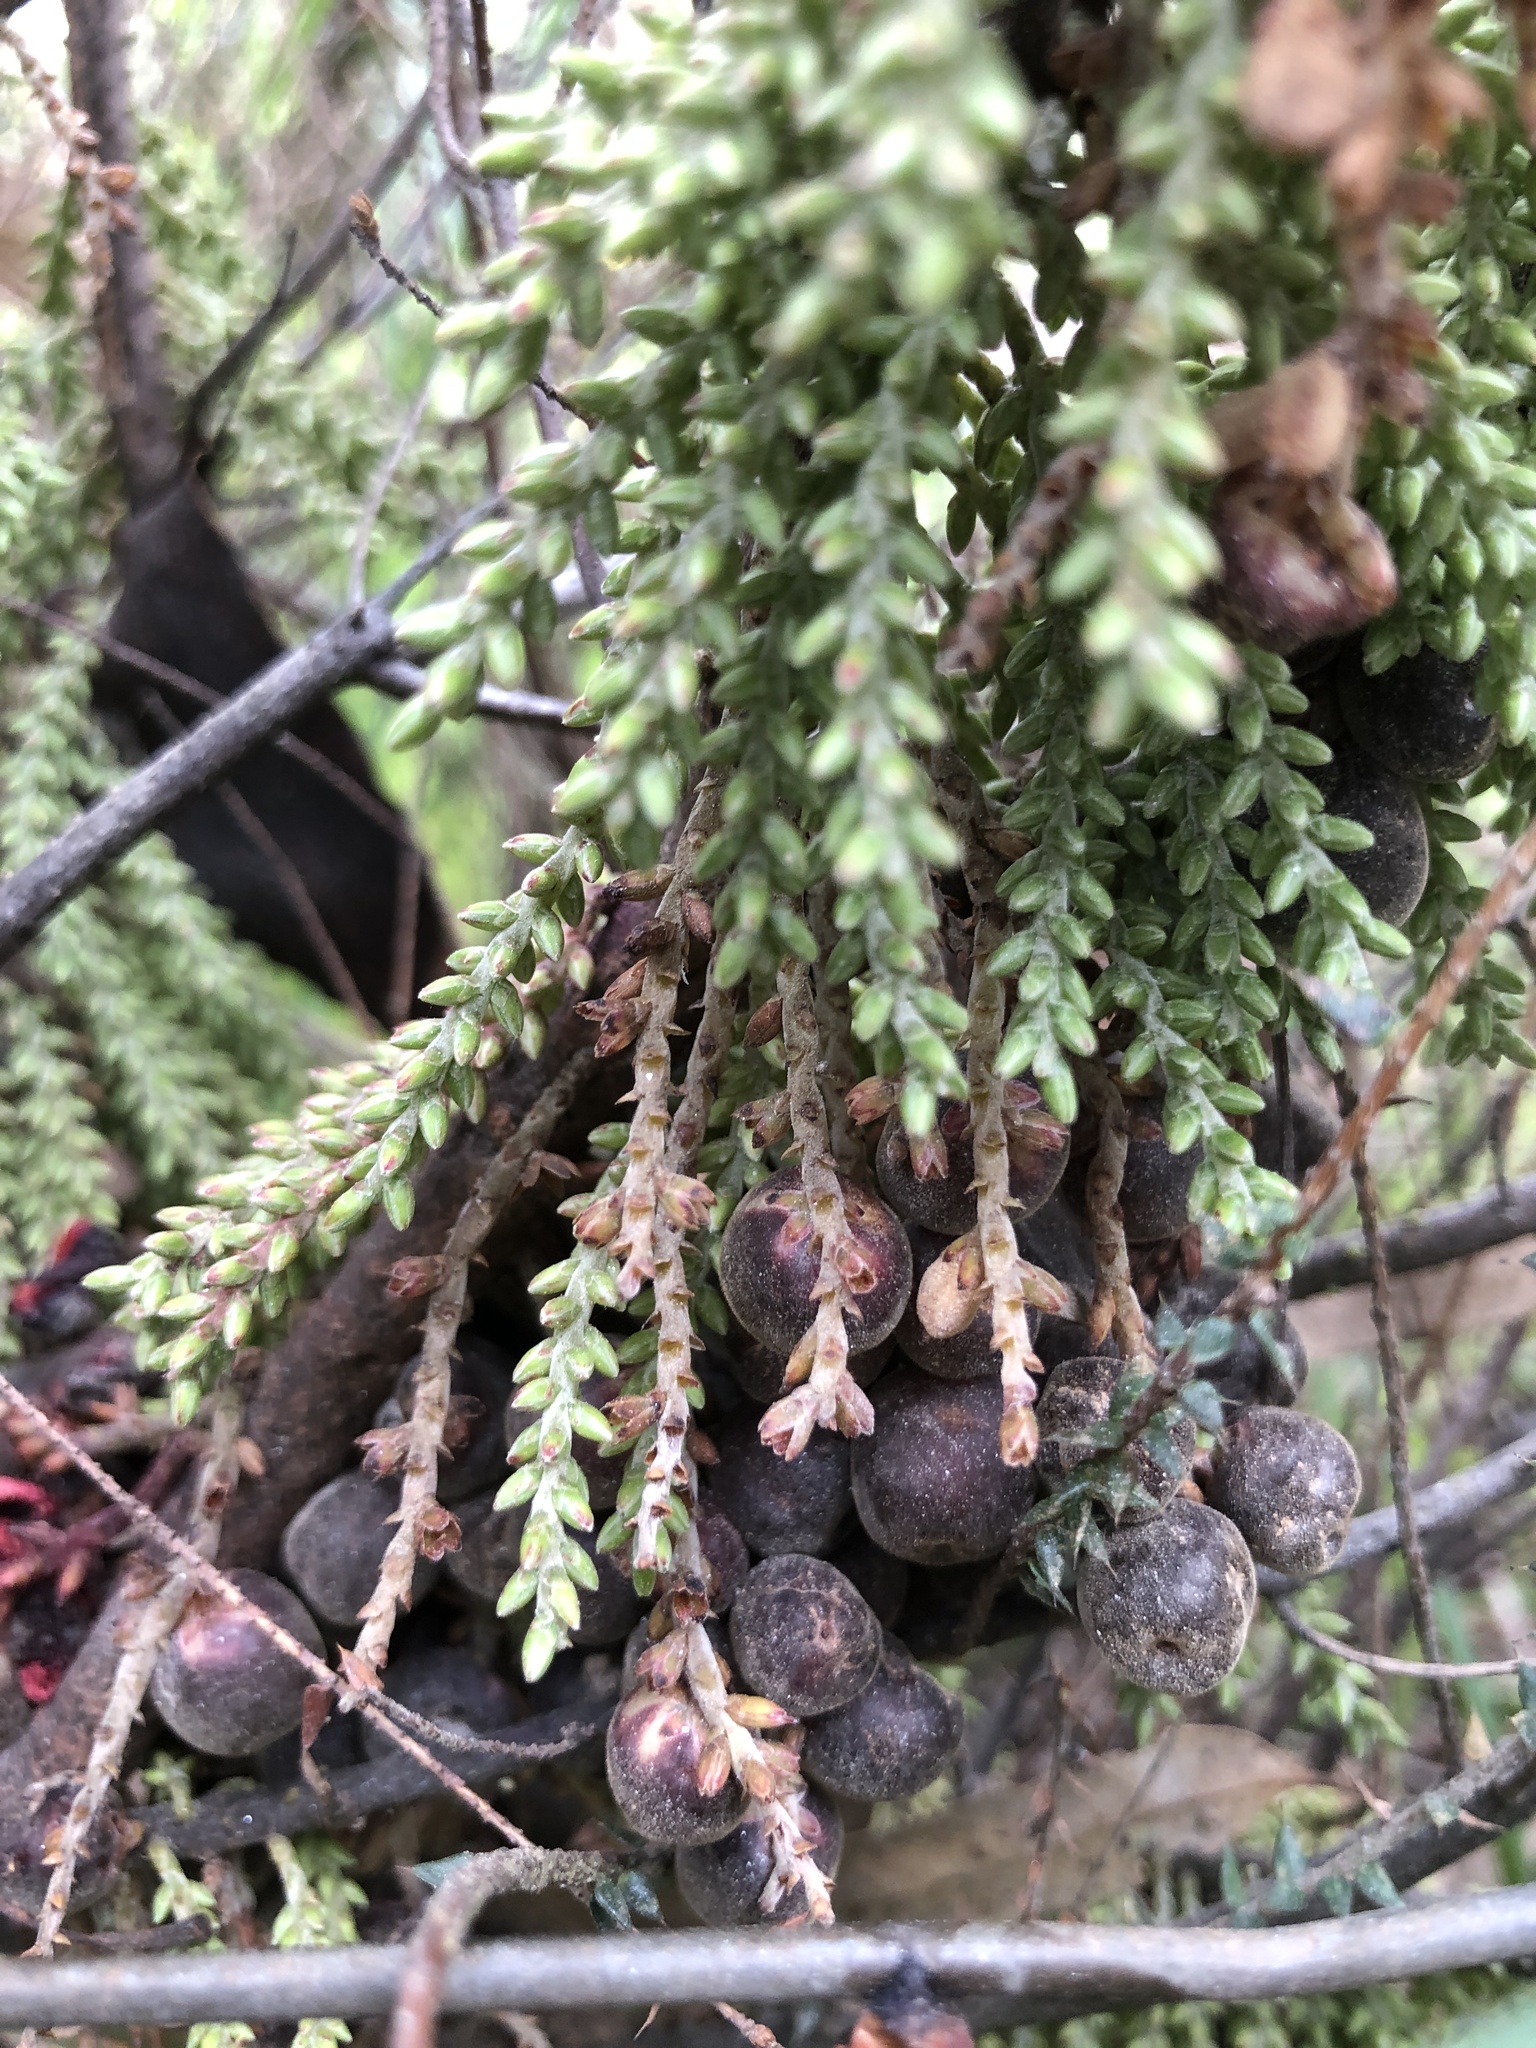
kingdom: Plantae
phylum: Tracheophyta
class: Magnoliopsida
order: Ericales
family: Ericaceae
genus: Acrotriche
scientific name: Acrotriche depressa
